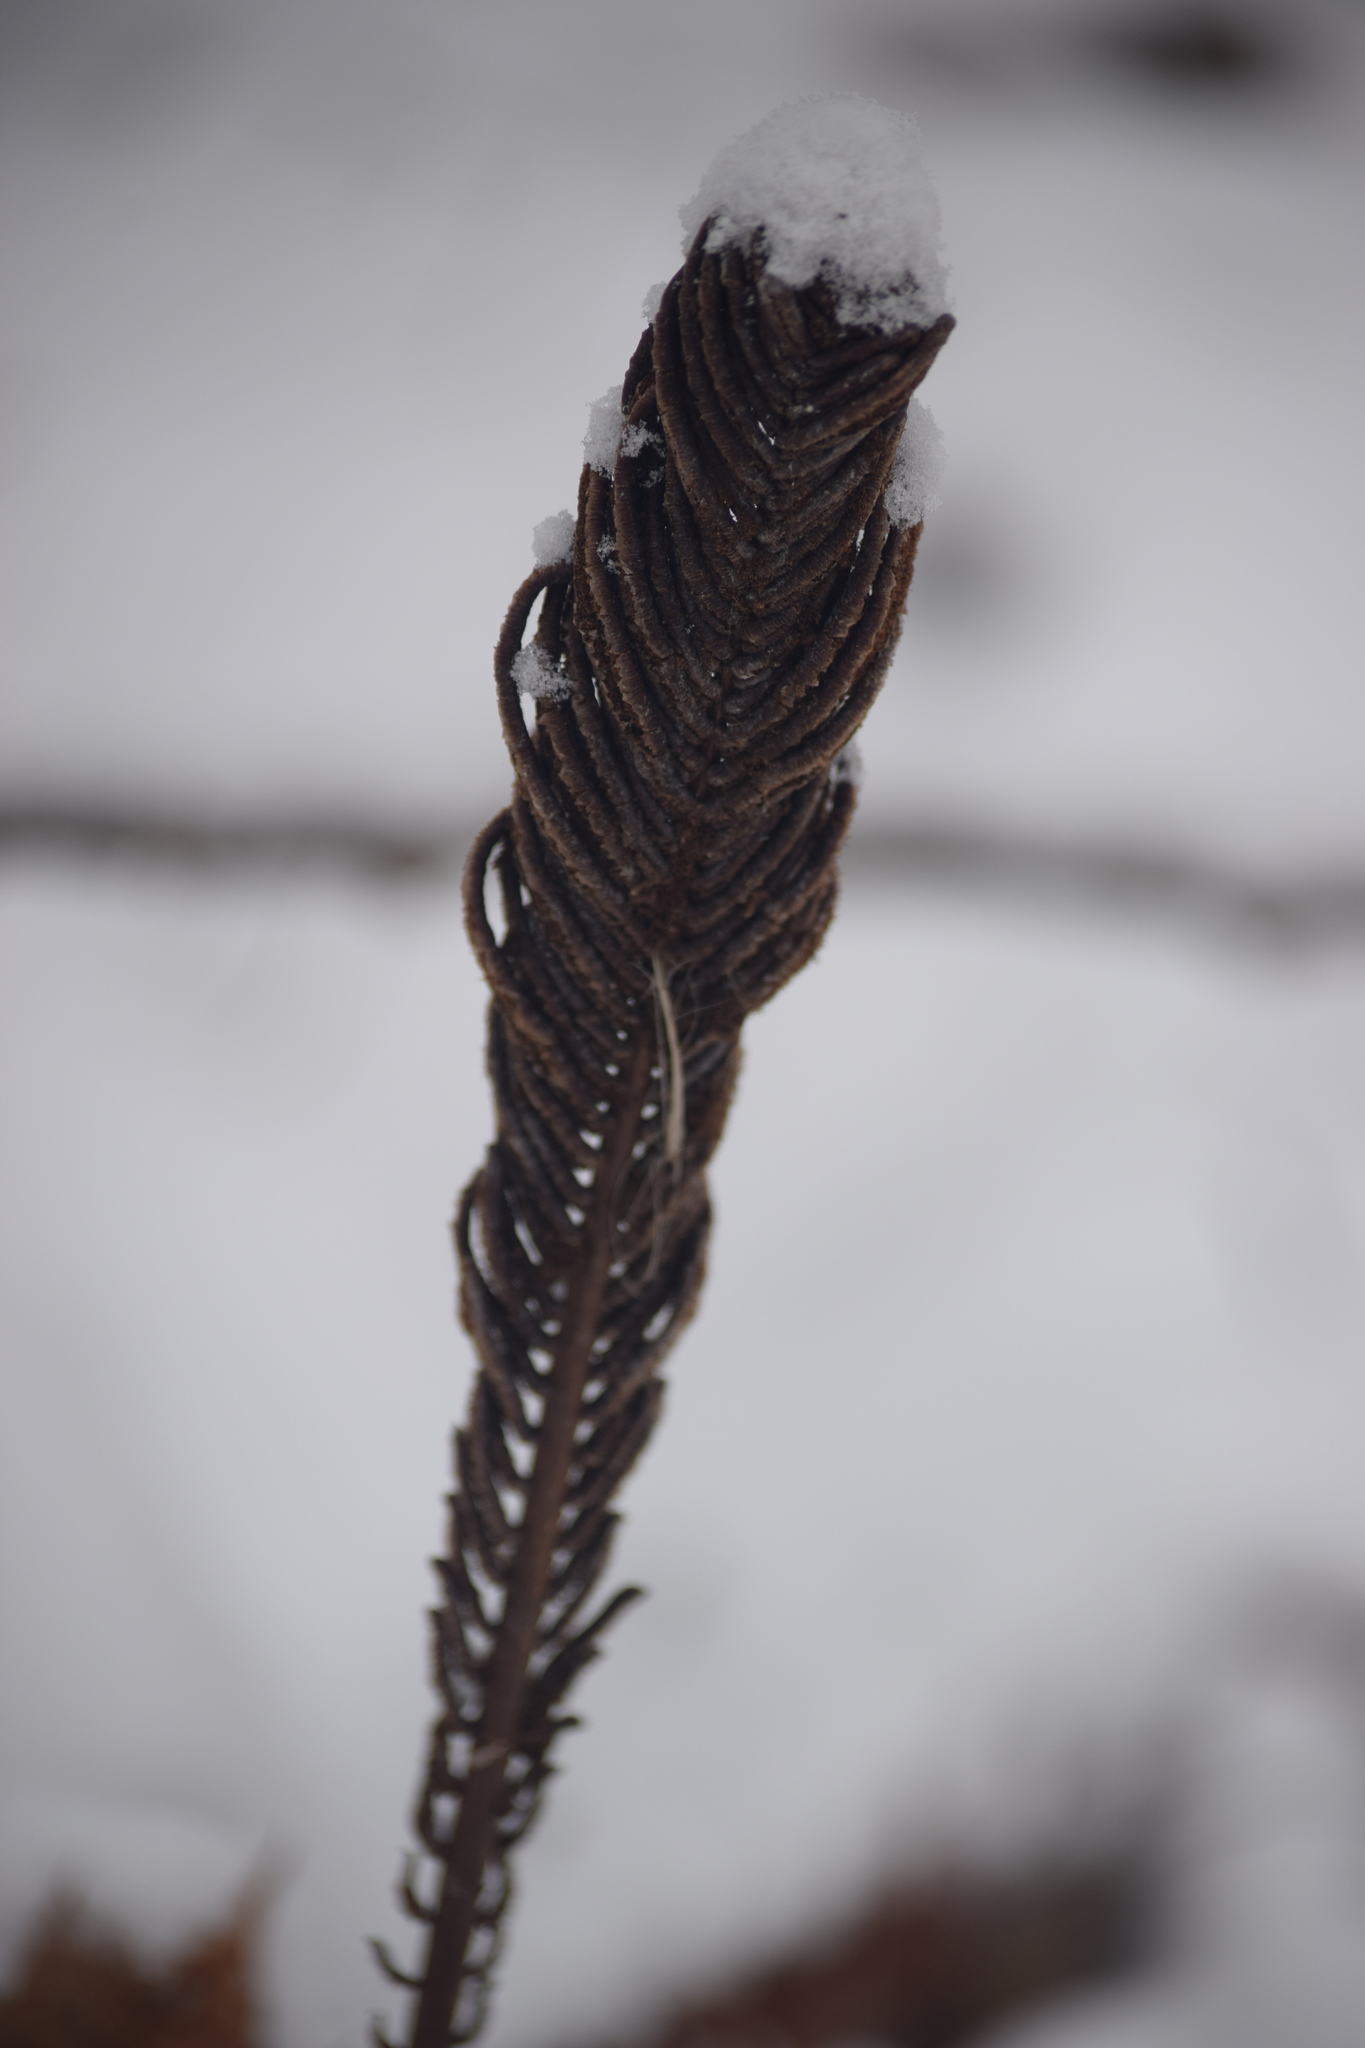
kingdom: Plantae
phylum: Tracheophyta
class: Polypodiopsida
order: Polypodiales
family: Onocleaceae
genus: Matteuccia
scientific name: Matteuccia struthiopteris
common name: Ostrich fern
